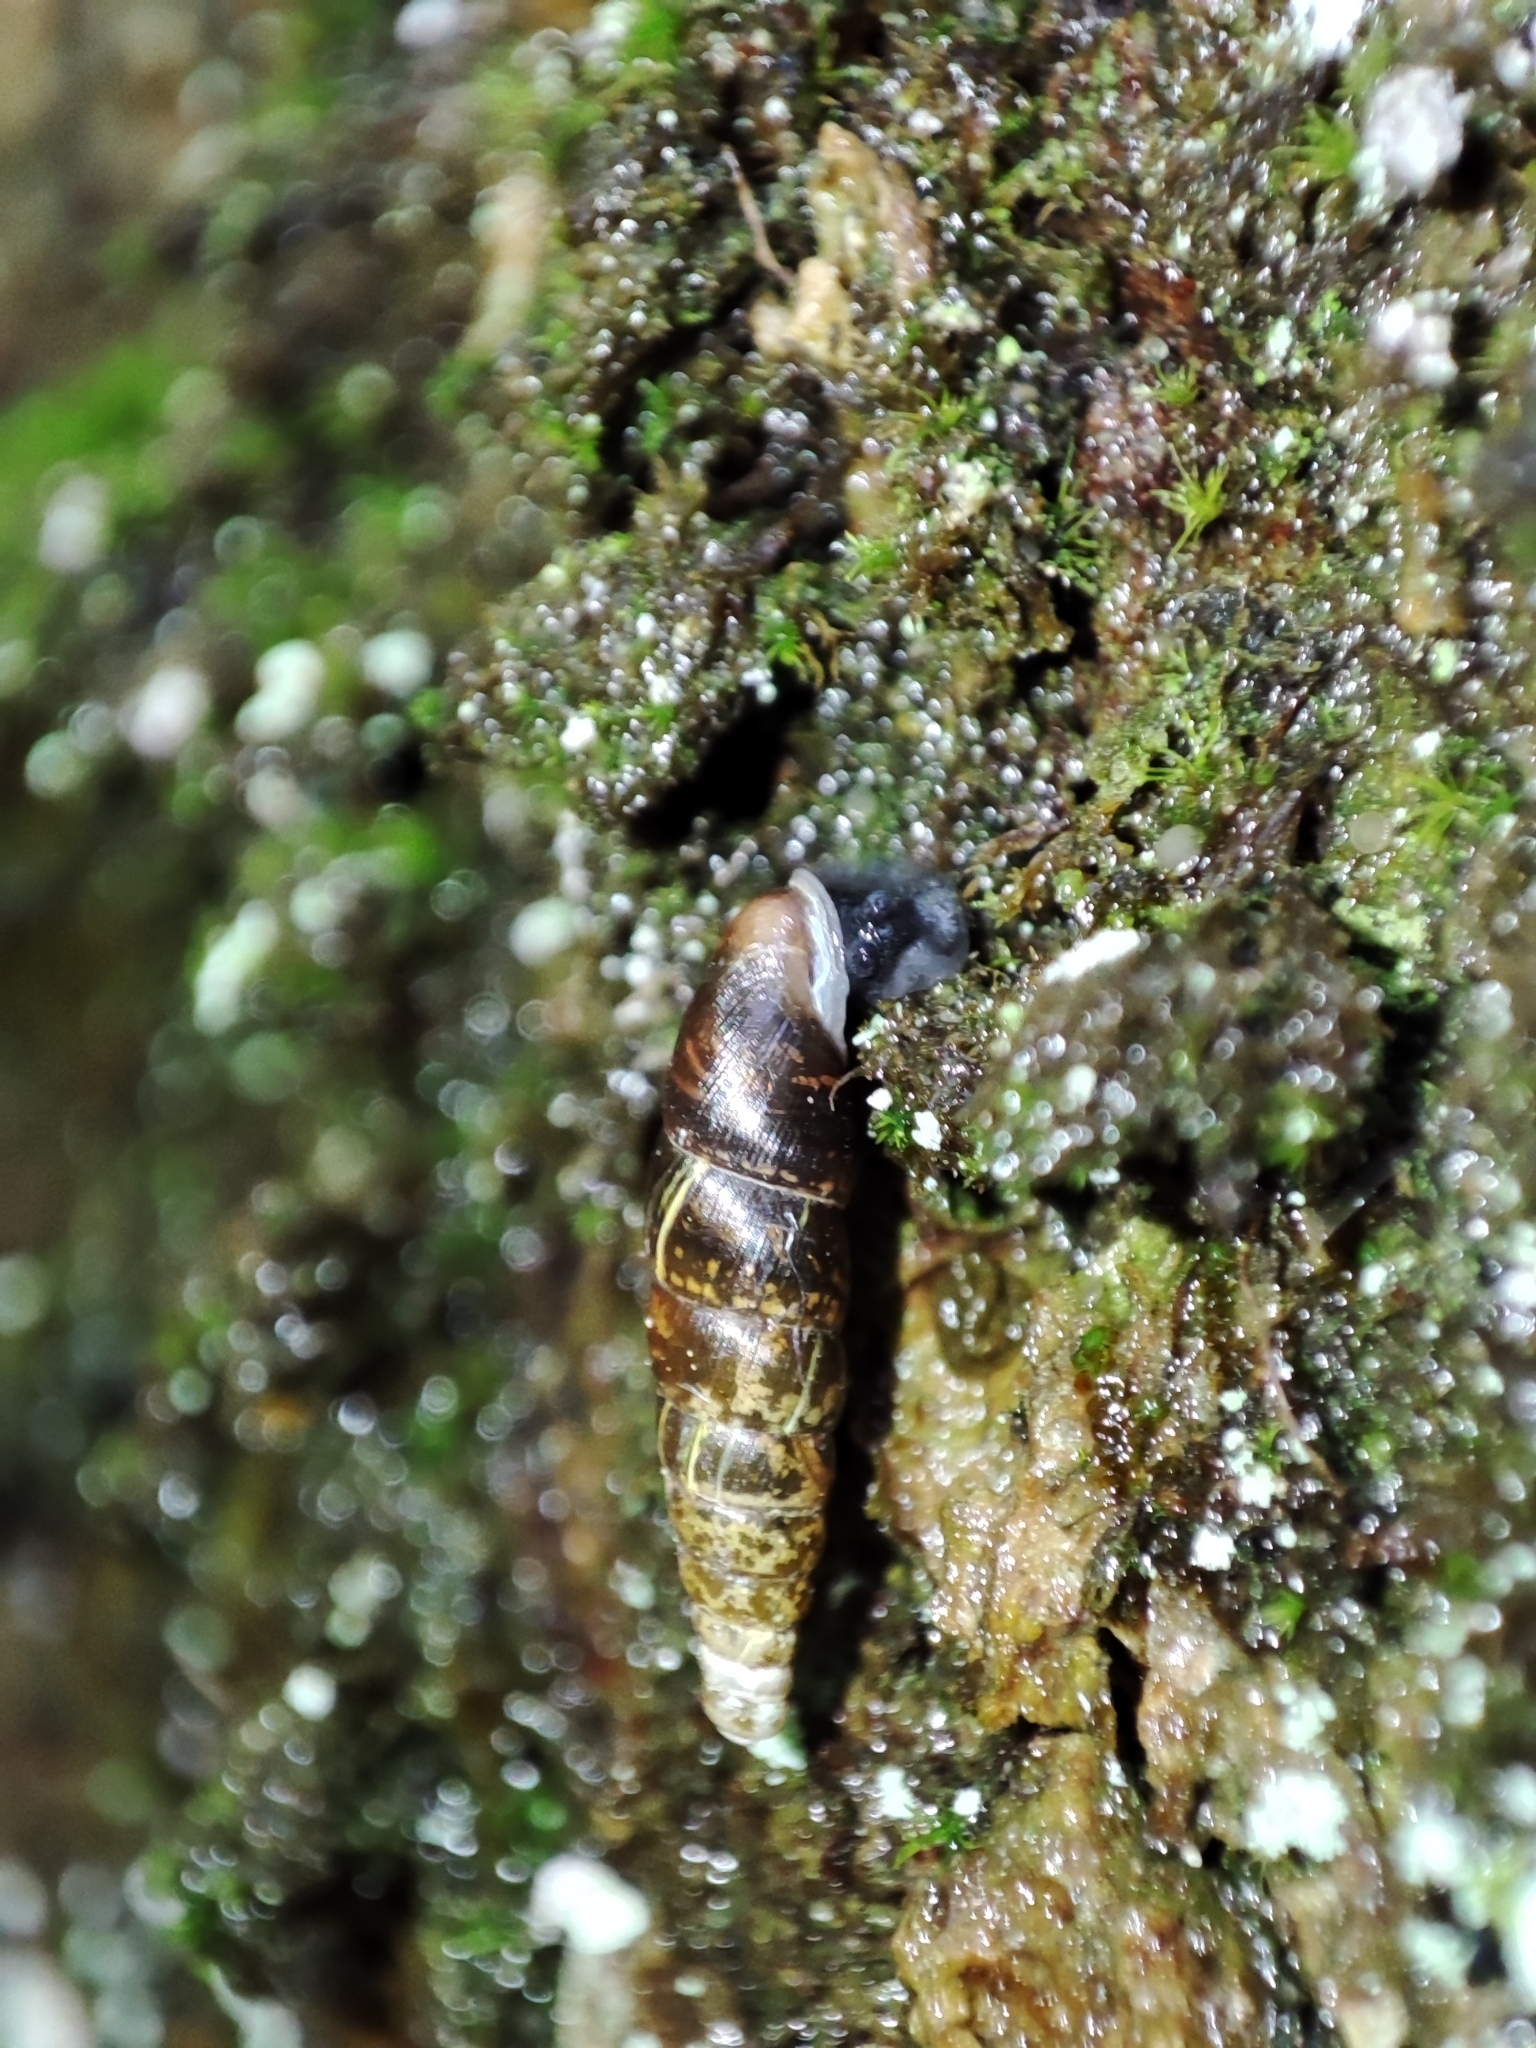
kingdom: Animalia
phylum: Mollusca
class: Gastropoda
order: Stylommatophora
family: Clausiliidae
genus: Cochlodina
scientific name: Cochlodina orthostoma
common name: Straightmouth door snail
